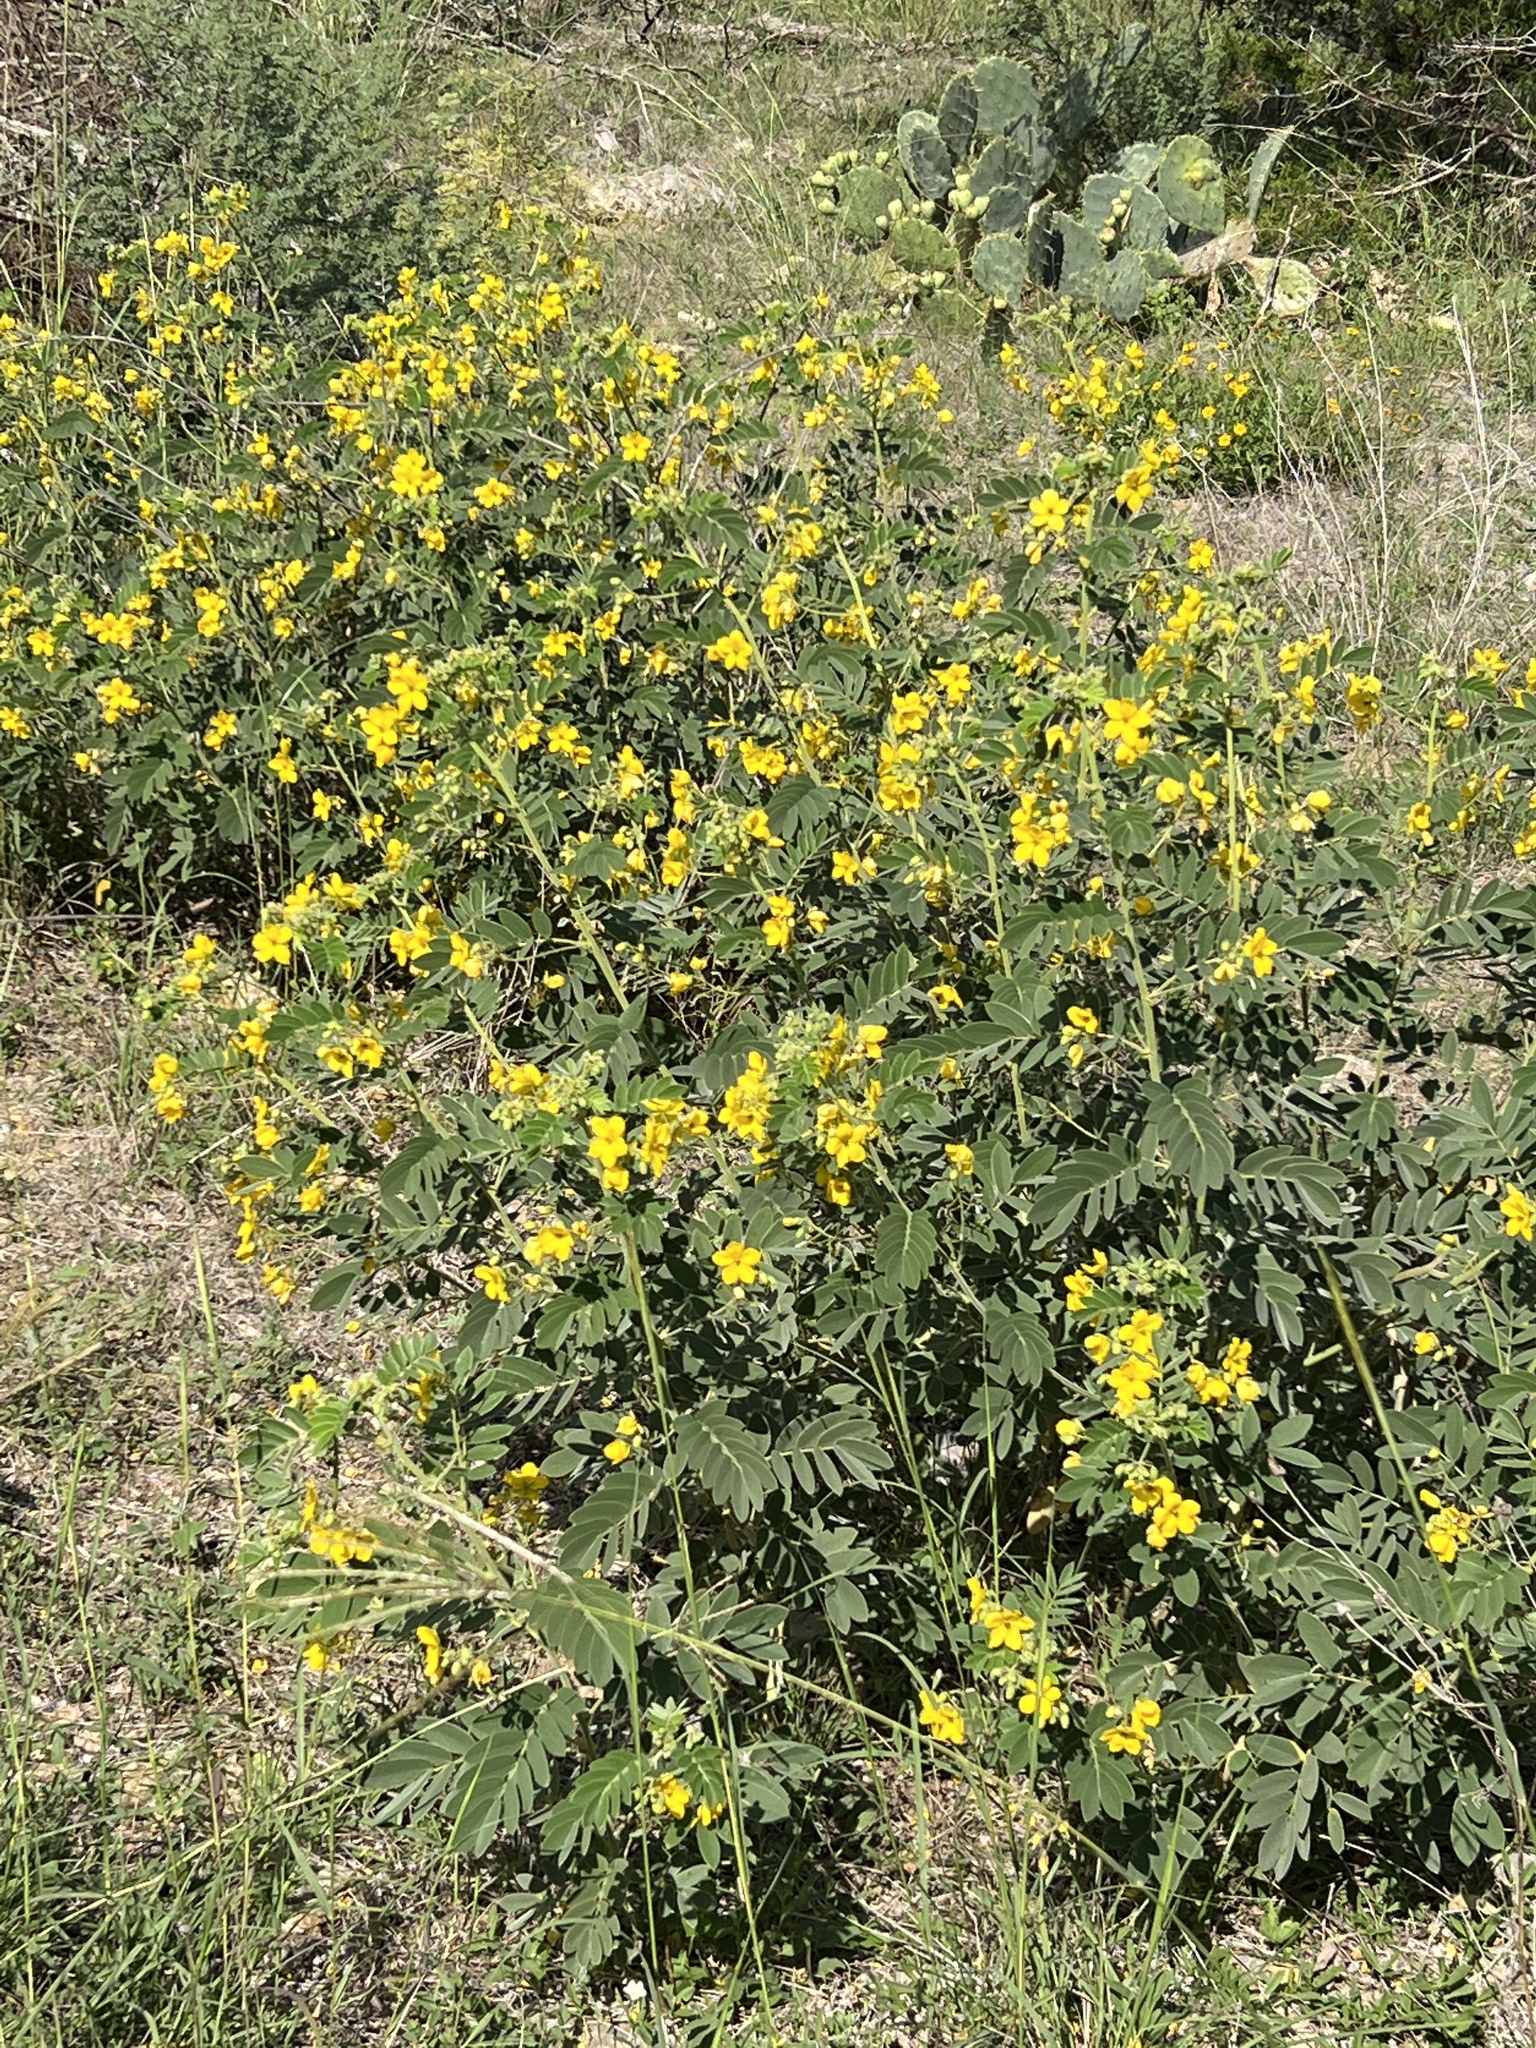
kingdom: Plantae
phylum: Tracheophyta
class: Magnoliopsida
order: Fabales
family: Fabaceae
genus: Senna
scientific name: Senna lindheimeriana
